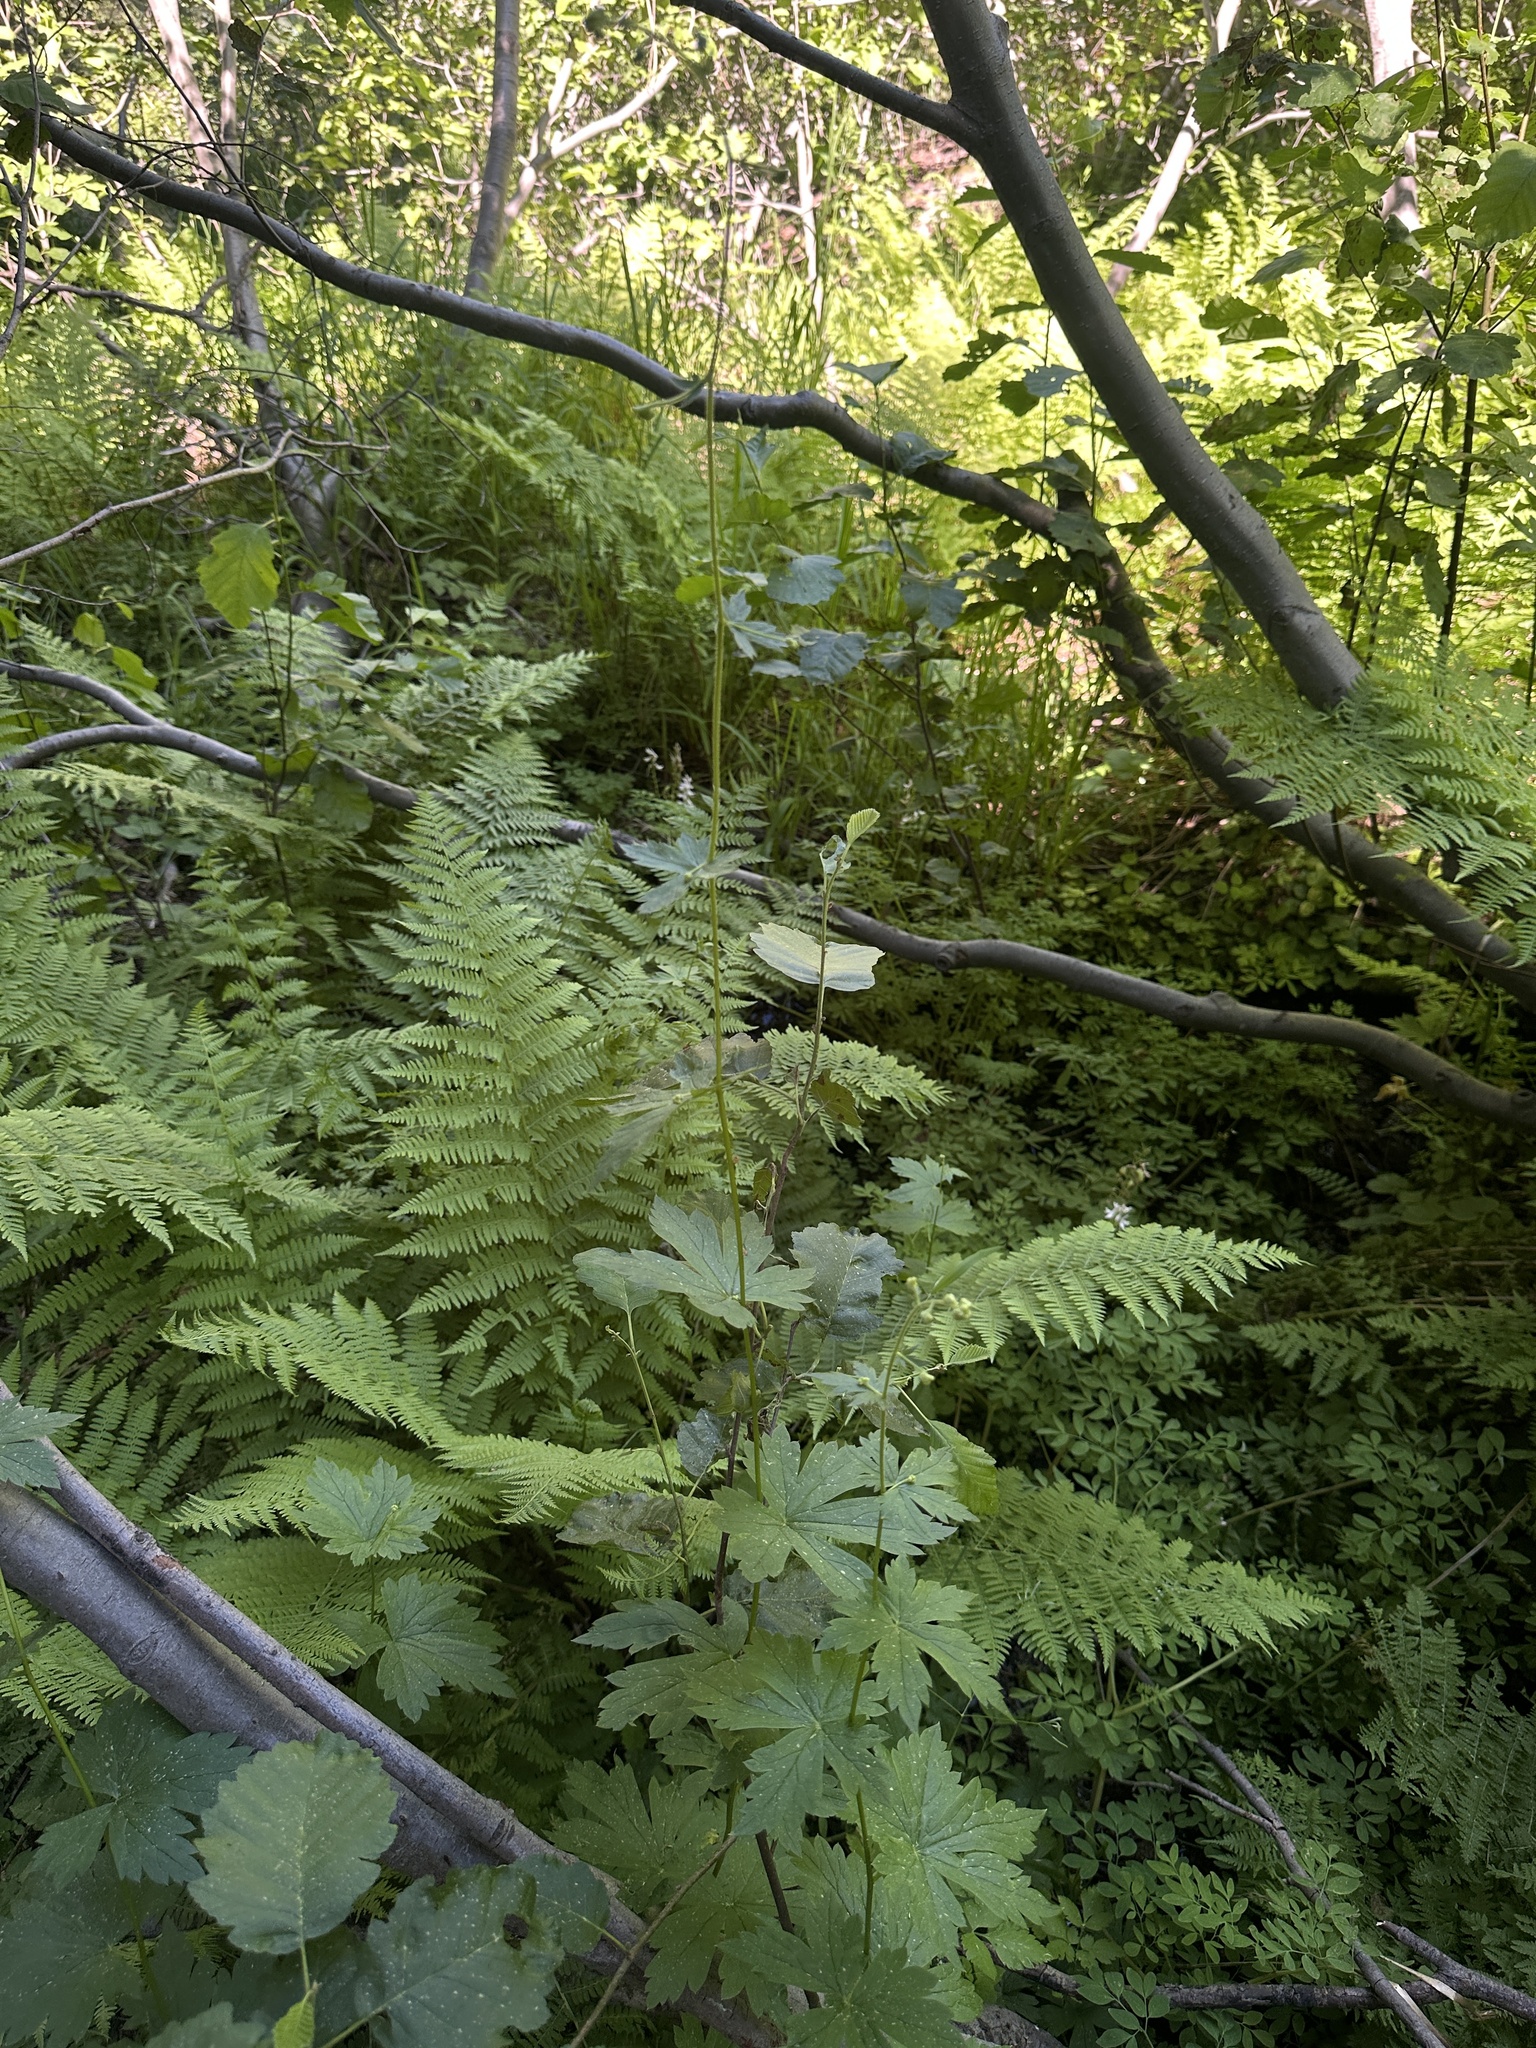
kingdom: Plantae
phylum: Tracheophyta
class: Magnoliopsida
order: Ranunculales
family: Ranunculaceae
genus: Aconitum
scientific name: Aconitum columbianum
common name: Columbia aconite
